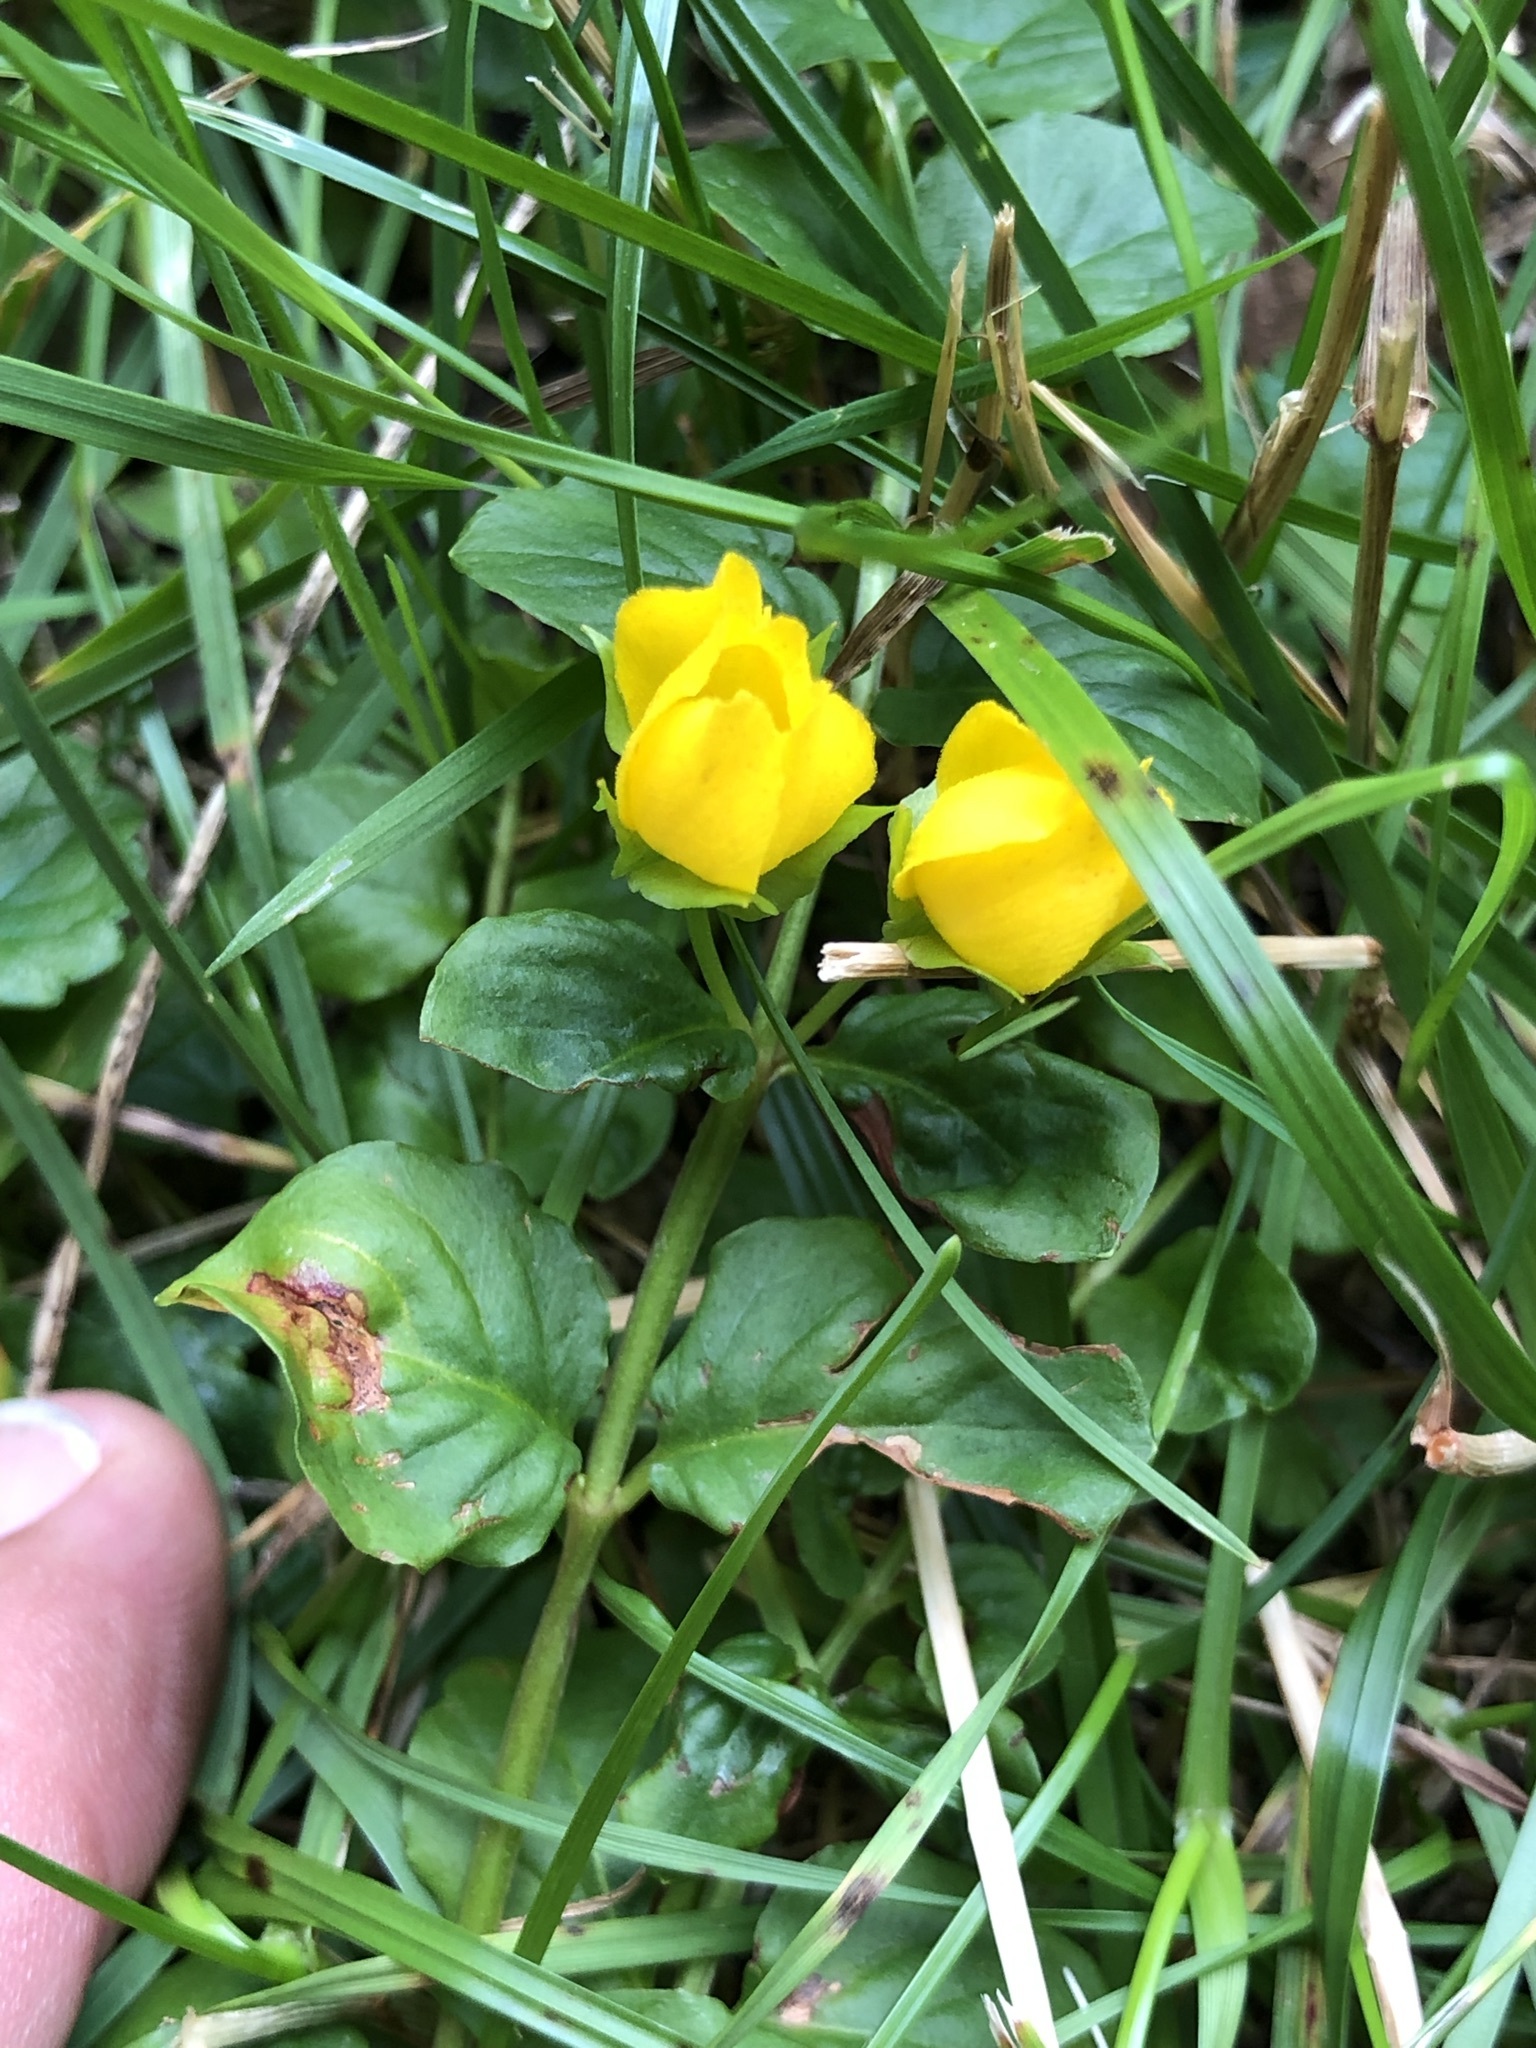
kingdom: Plantae
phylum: Tracheophyta
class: Magnoliopsida
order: Ericales
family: Primulaceae
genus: Lysimachia
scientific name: Lysimachia nummularia
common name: Moneywort
